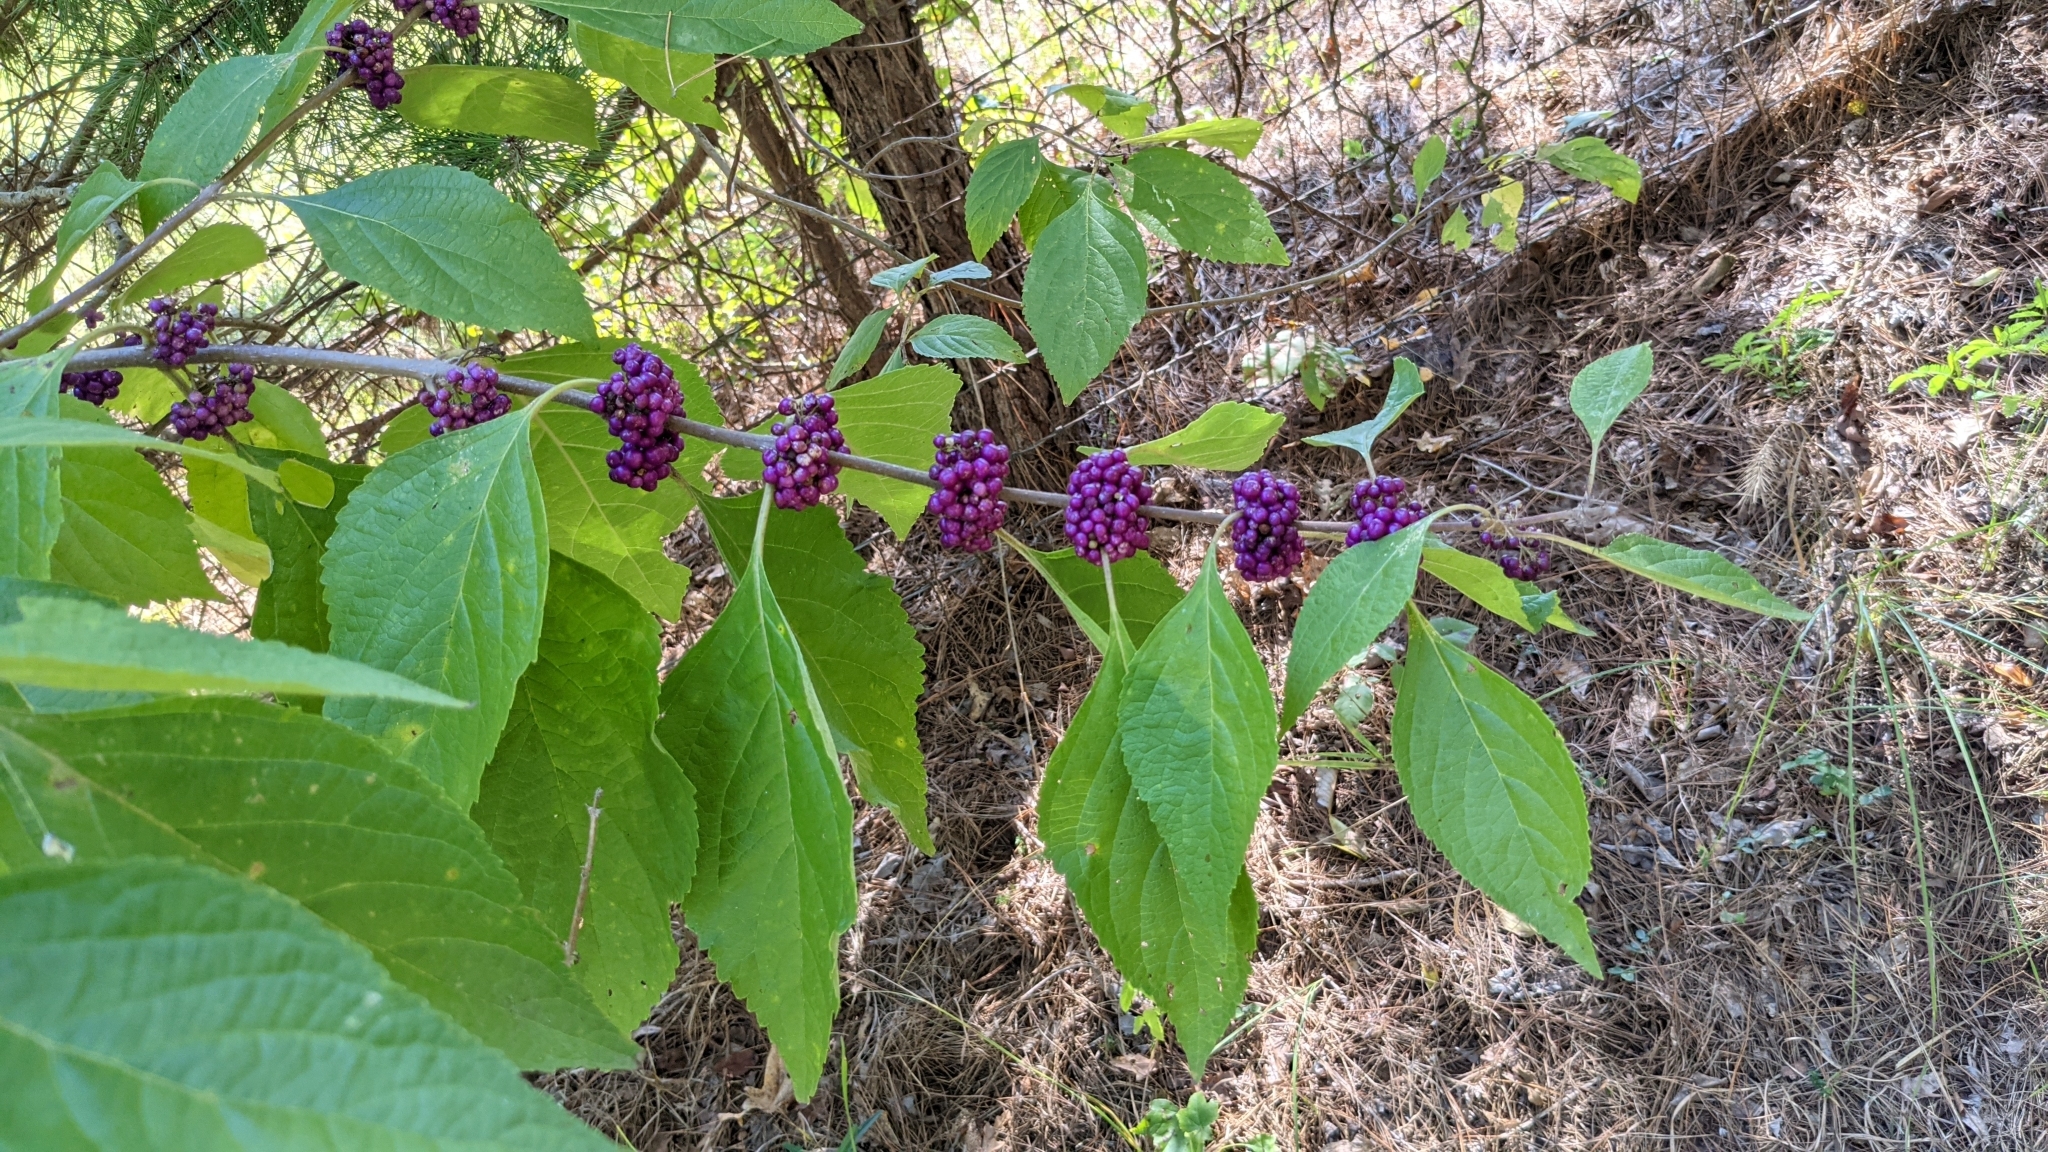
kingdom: Plantae
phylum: Tracheophyta
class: Magnoliopsida
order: Lamiales
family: Lamiaceae
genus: Callicarpa
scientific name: Callicarpa americana
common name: American beautyberry
